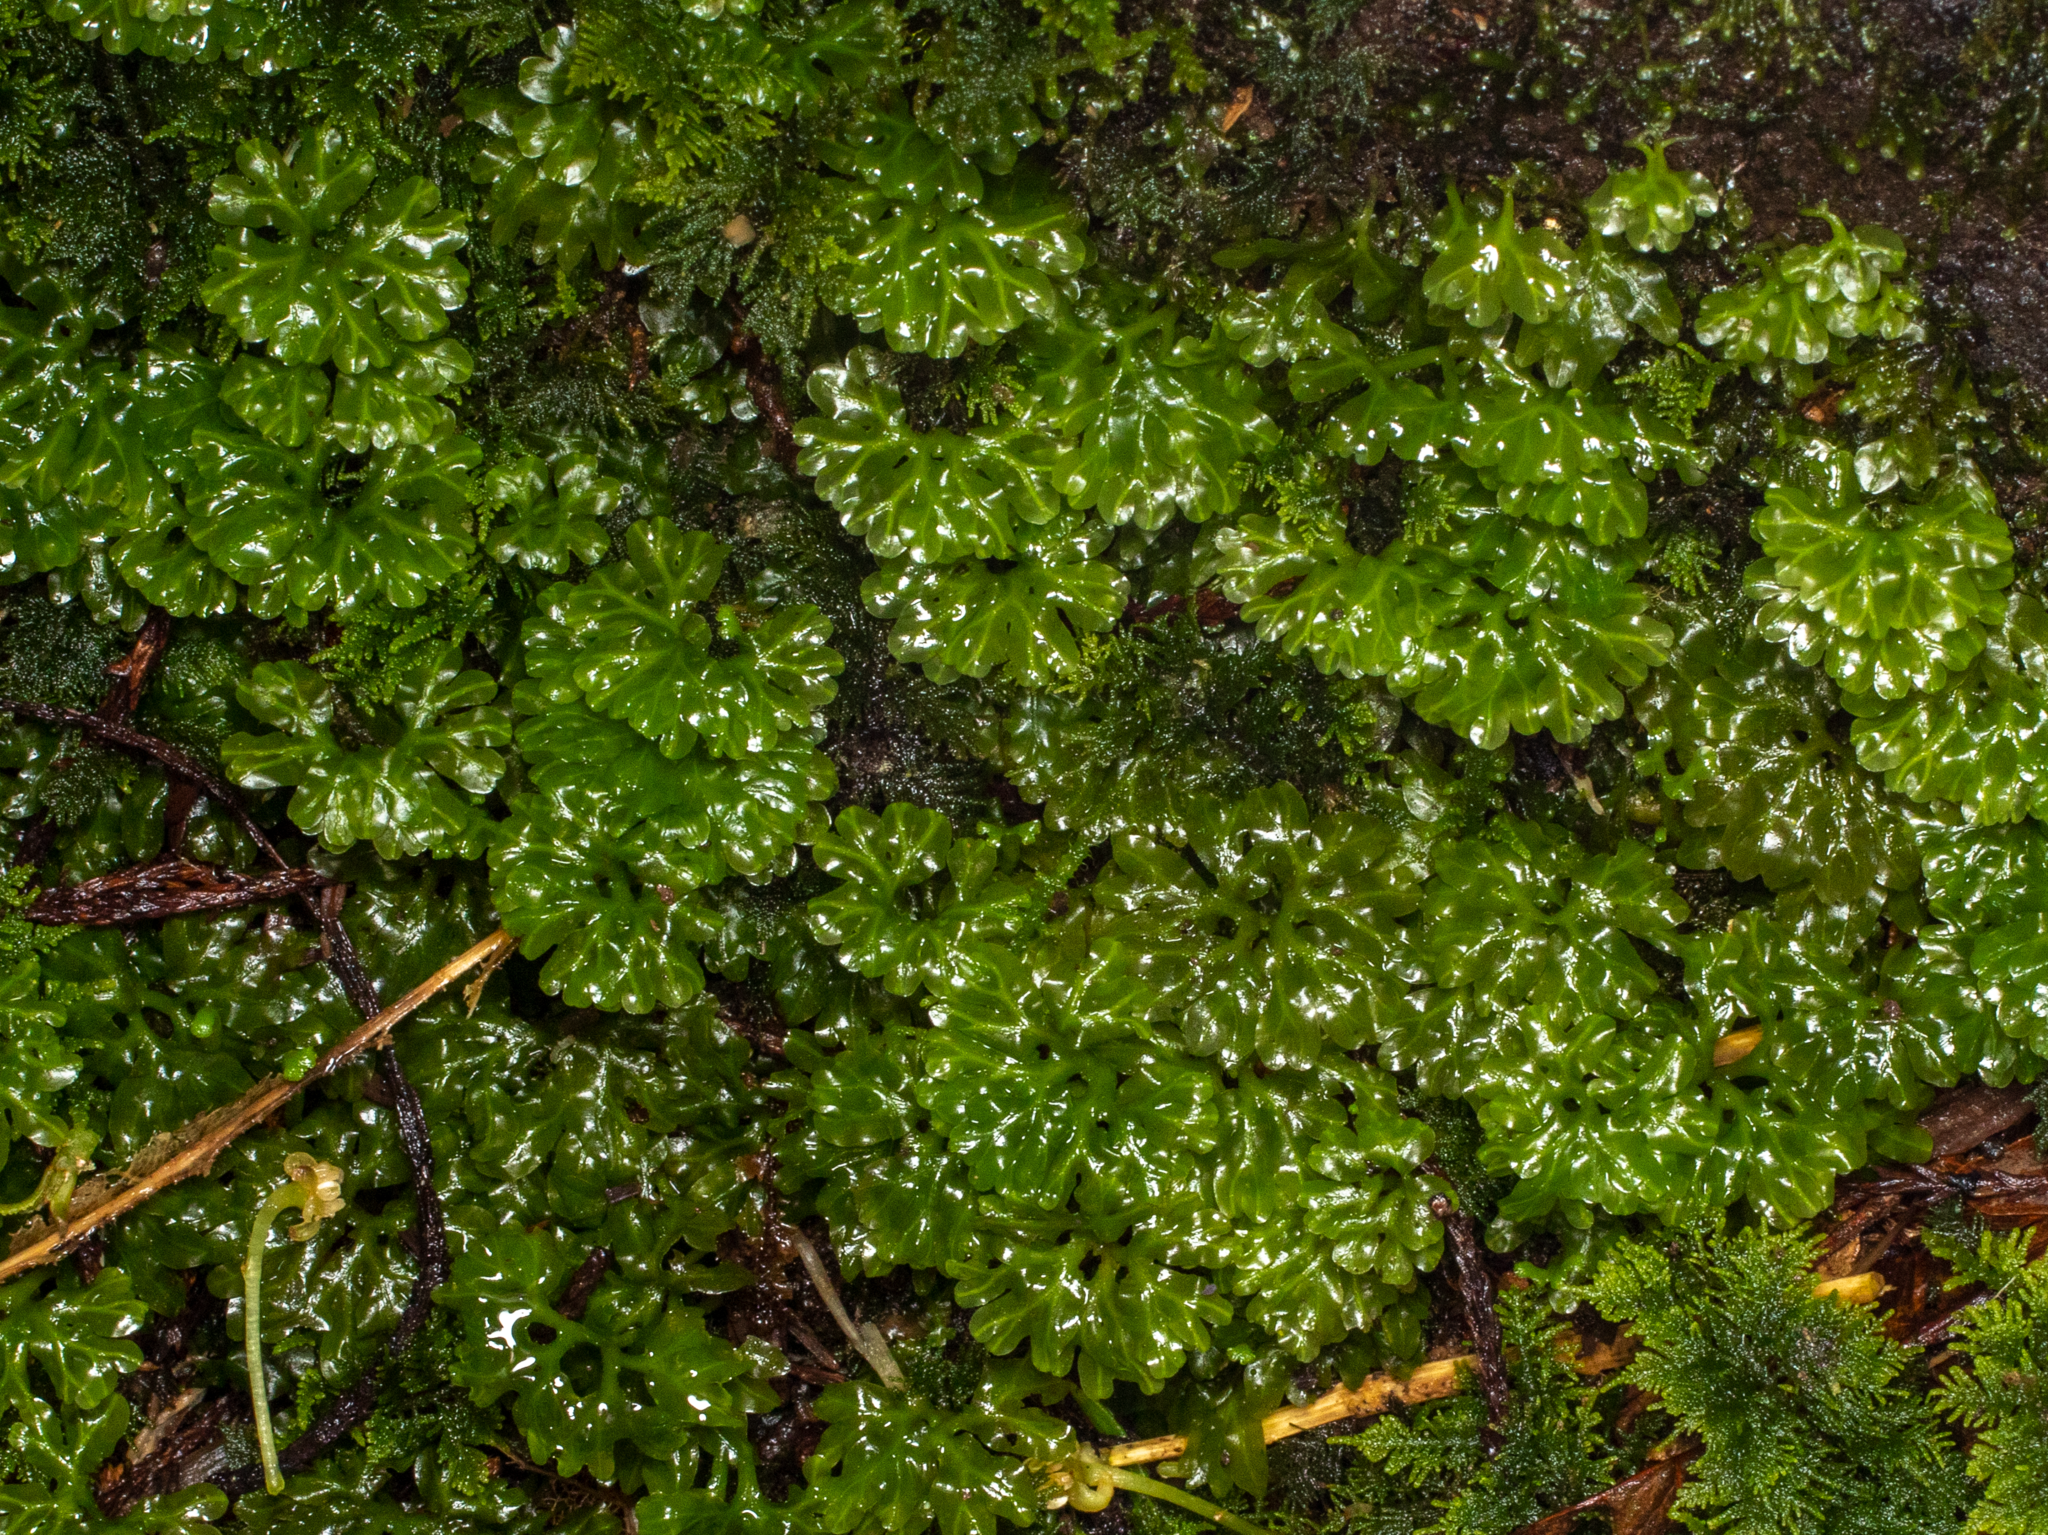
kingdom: Plantae
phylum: Marchantiophyta
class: Jungermanniopsida
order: Pallaviciniales
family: Hymenophytaceae
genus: Hymenophyton
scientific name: Hymenophyton flabellatum
